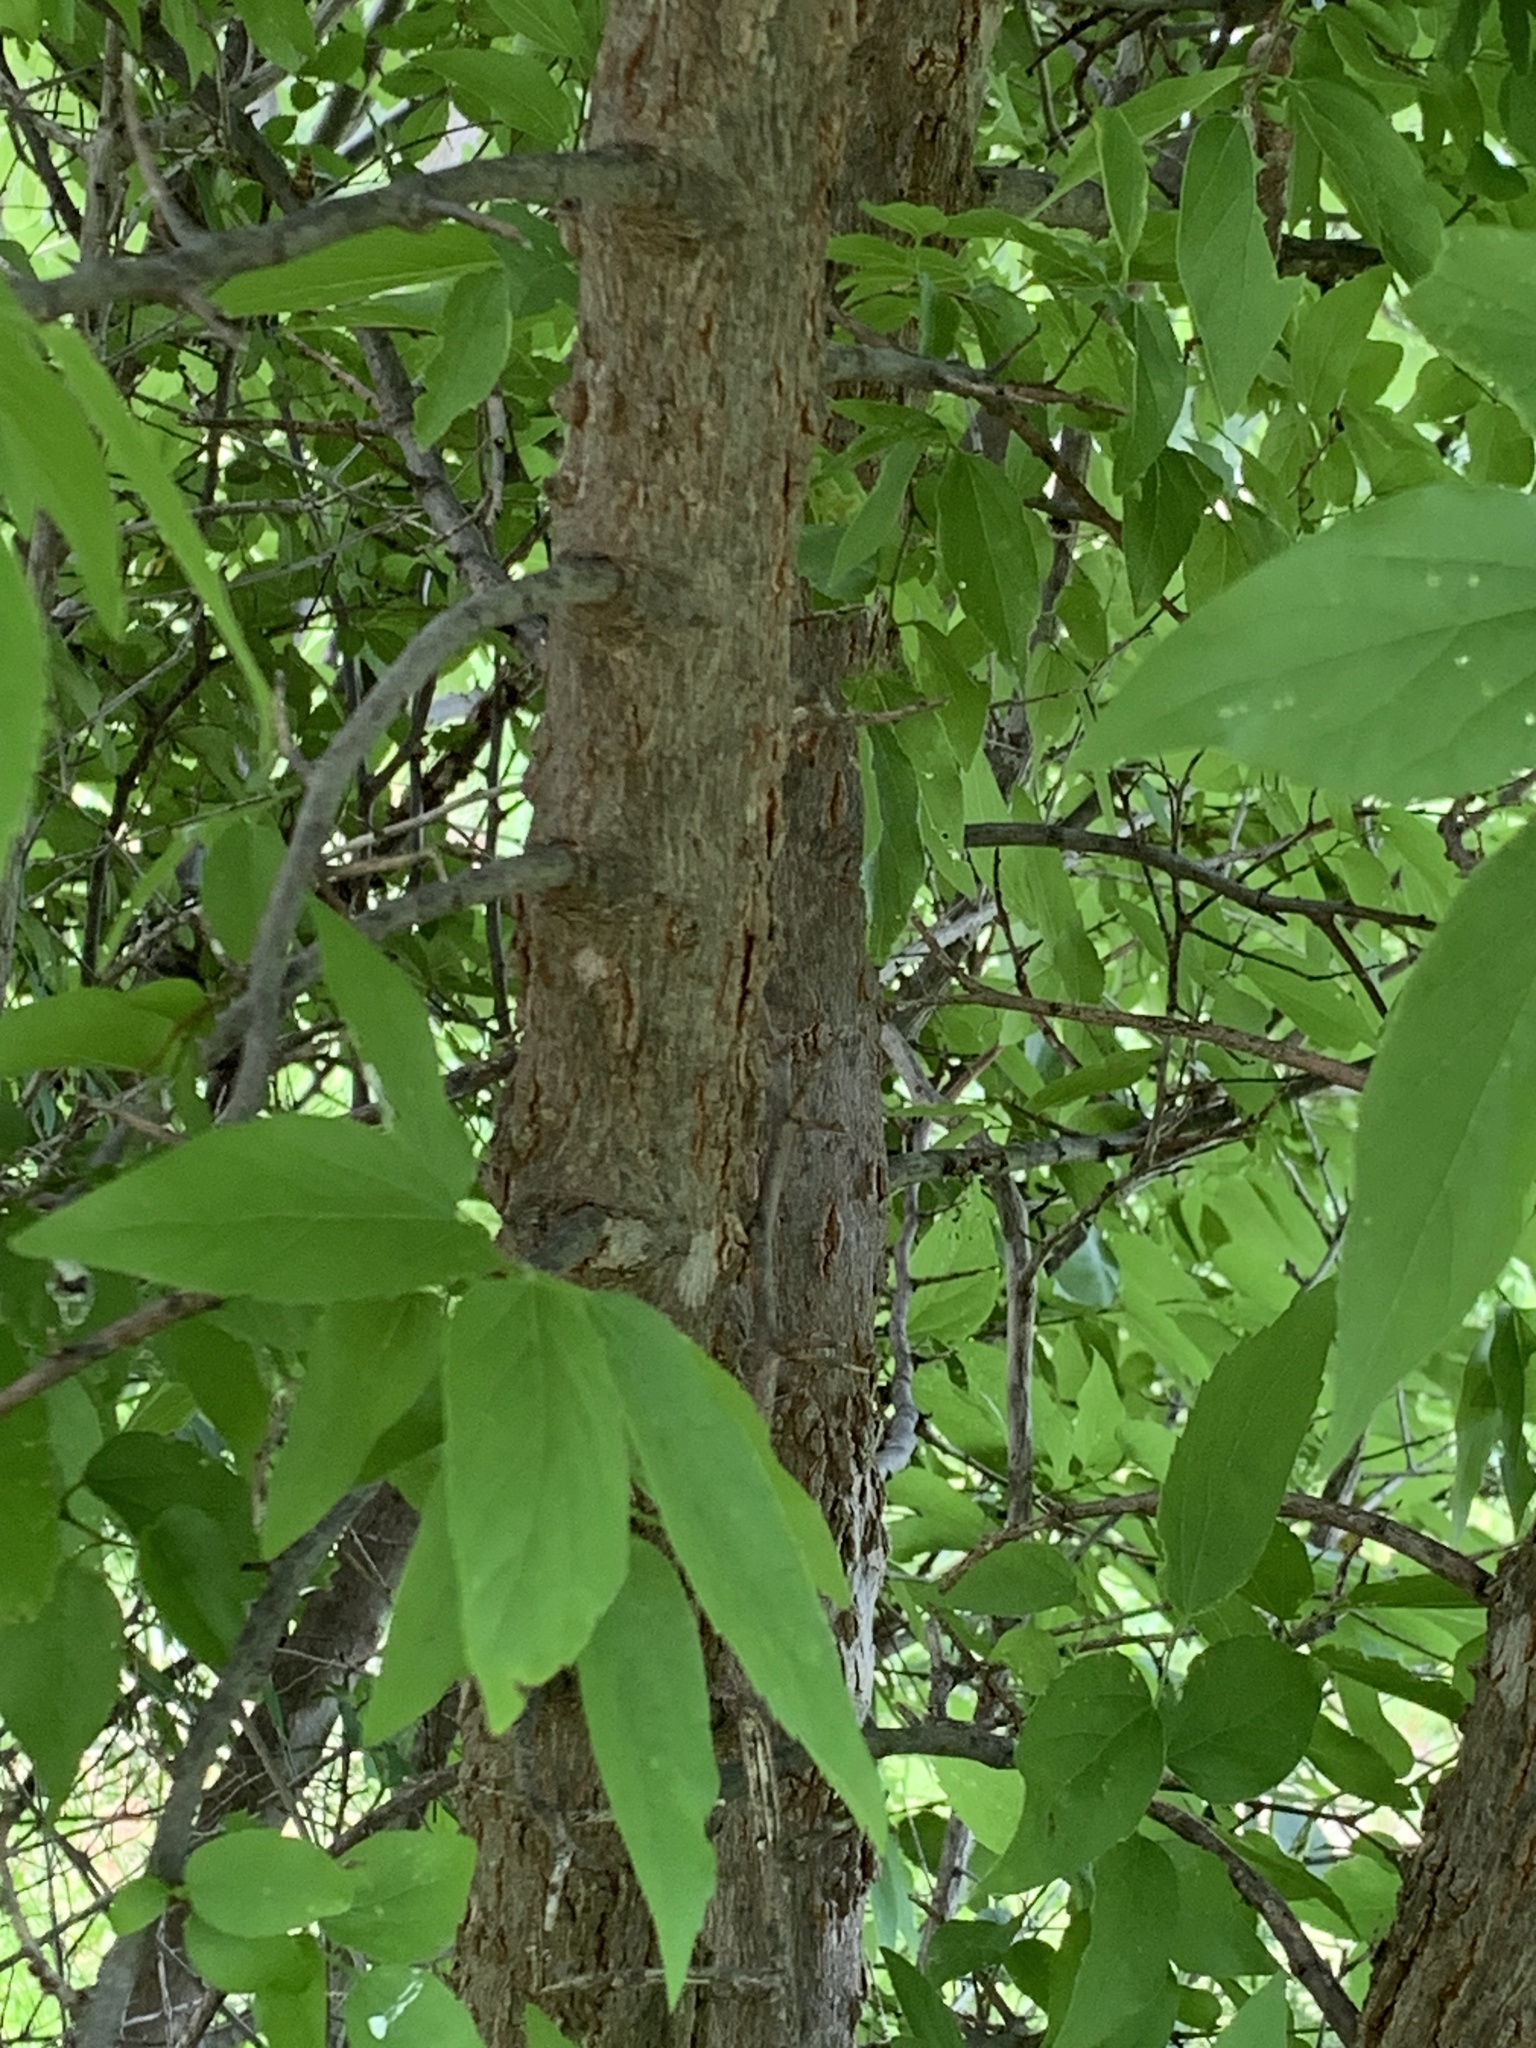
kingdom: Plantae
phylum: Tracheophyta
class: Magnoliopsida
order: Rosales
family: Cannabaceae
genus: Celtis
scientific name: Celtis laevigata
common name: Sugarberry
